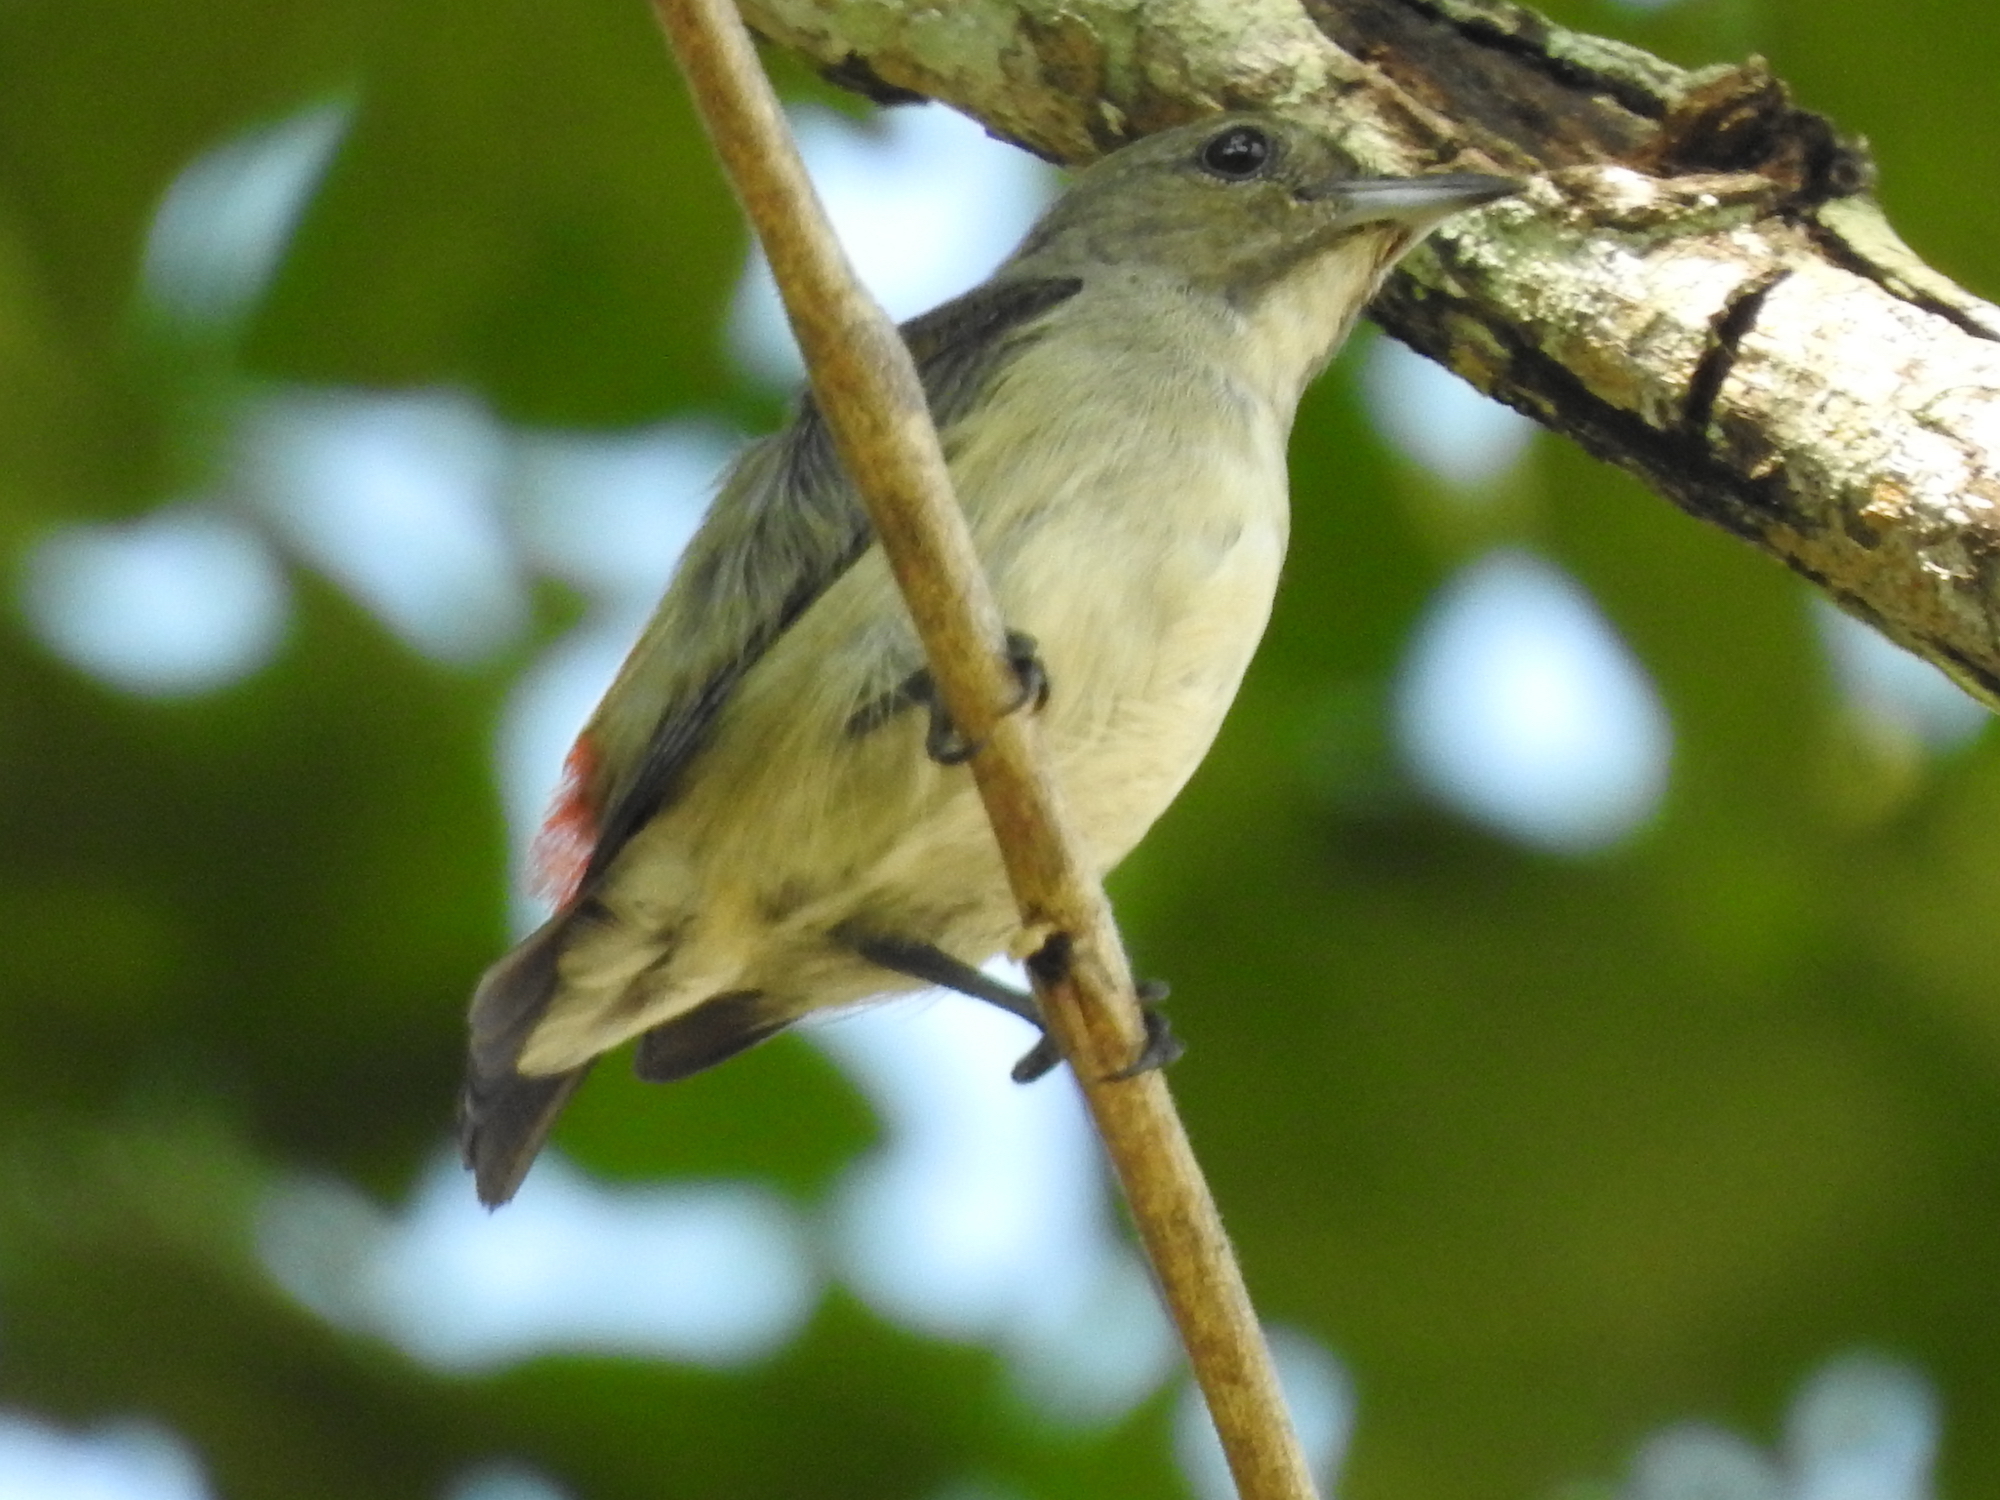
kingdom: Animalia
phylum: Chordata
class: Aves
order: Passeriformes
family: Dicaeidae
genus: Dicaeum
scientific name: Dicaeum cruentatum
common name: Scarlet-backed flowerpecker
